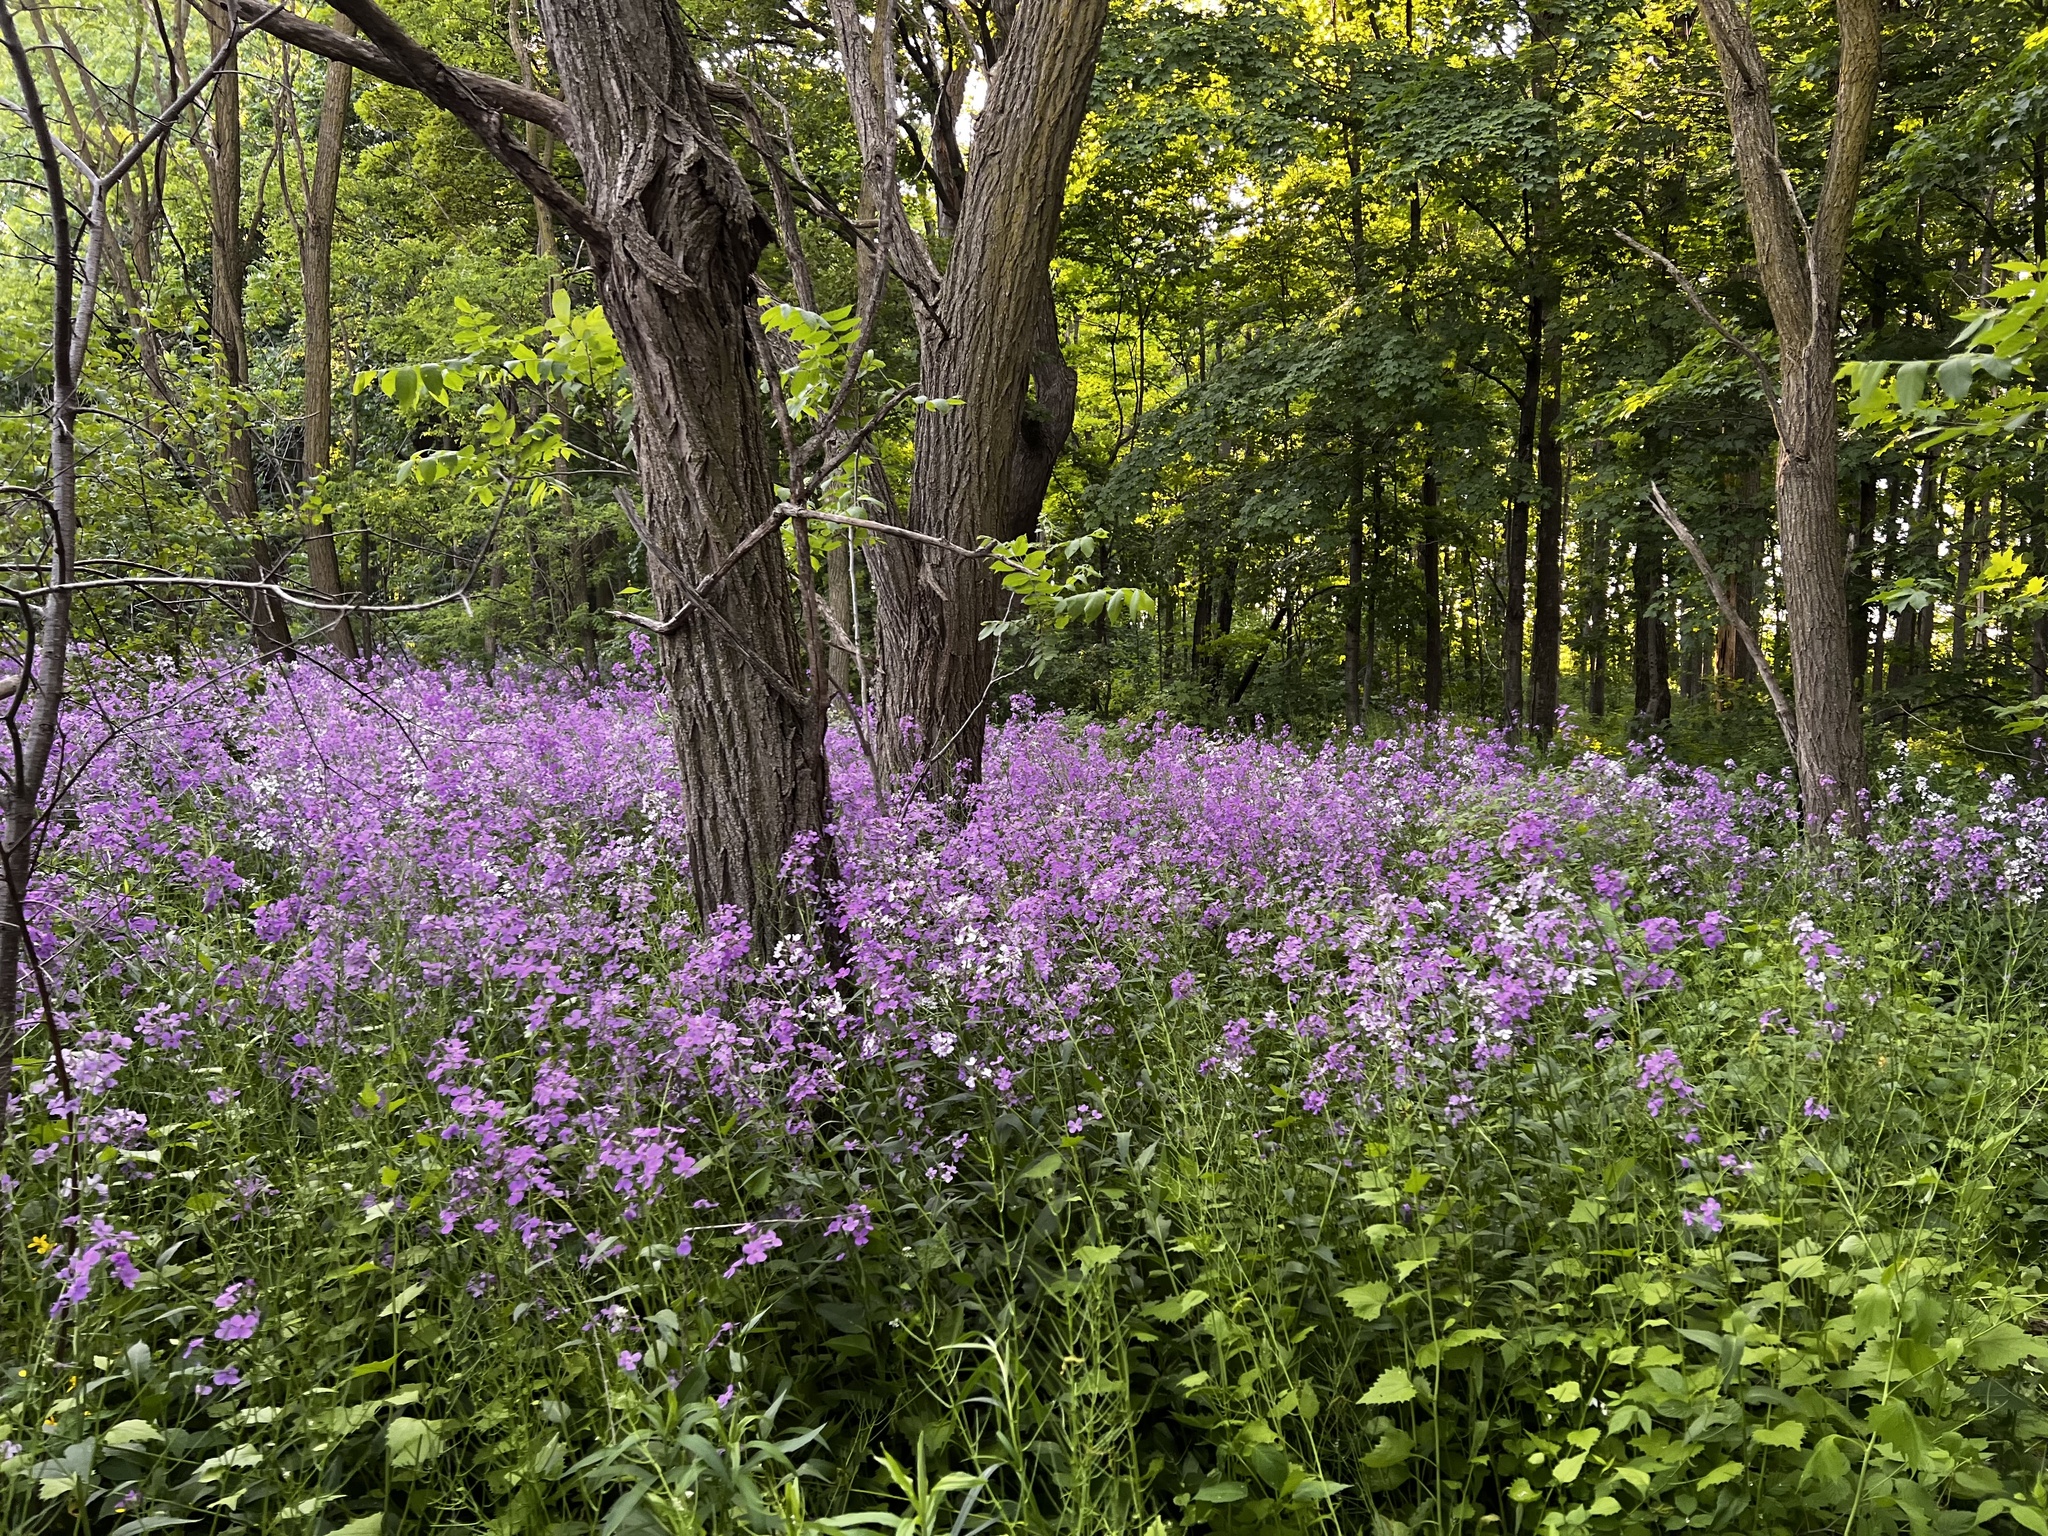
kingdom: Plantae
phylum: Tracheophyta
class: Magnoliopsida
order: Brassicales
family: Brassicaceae
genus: Hesperis
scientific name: Hesperis matronalis
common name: Dame's-violet
